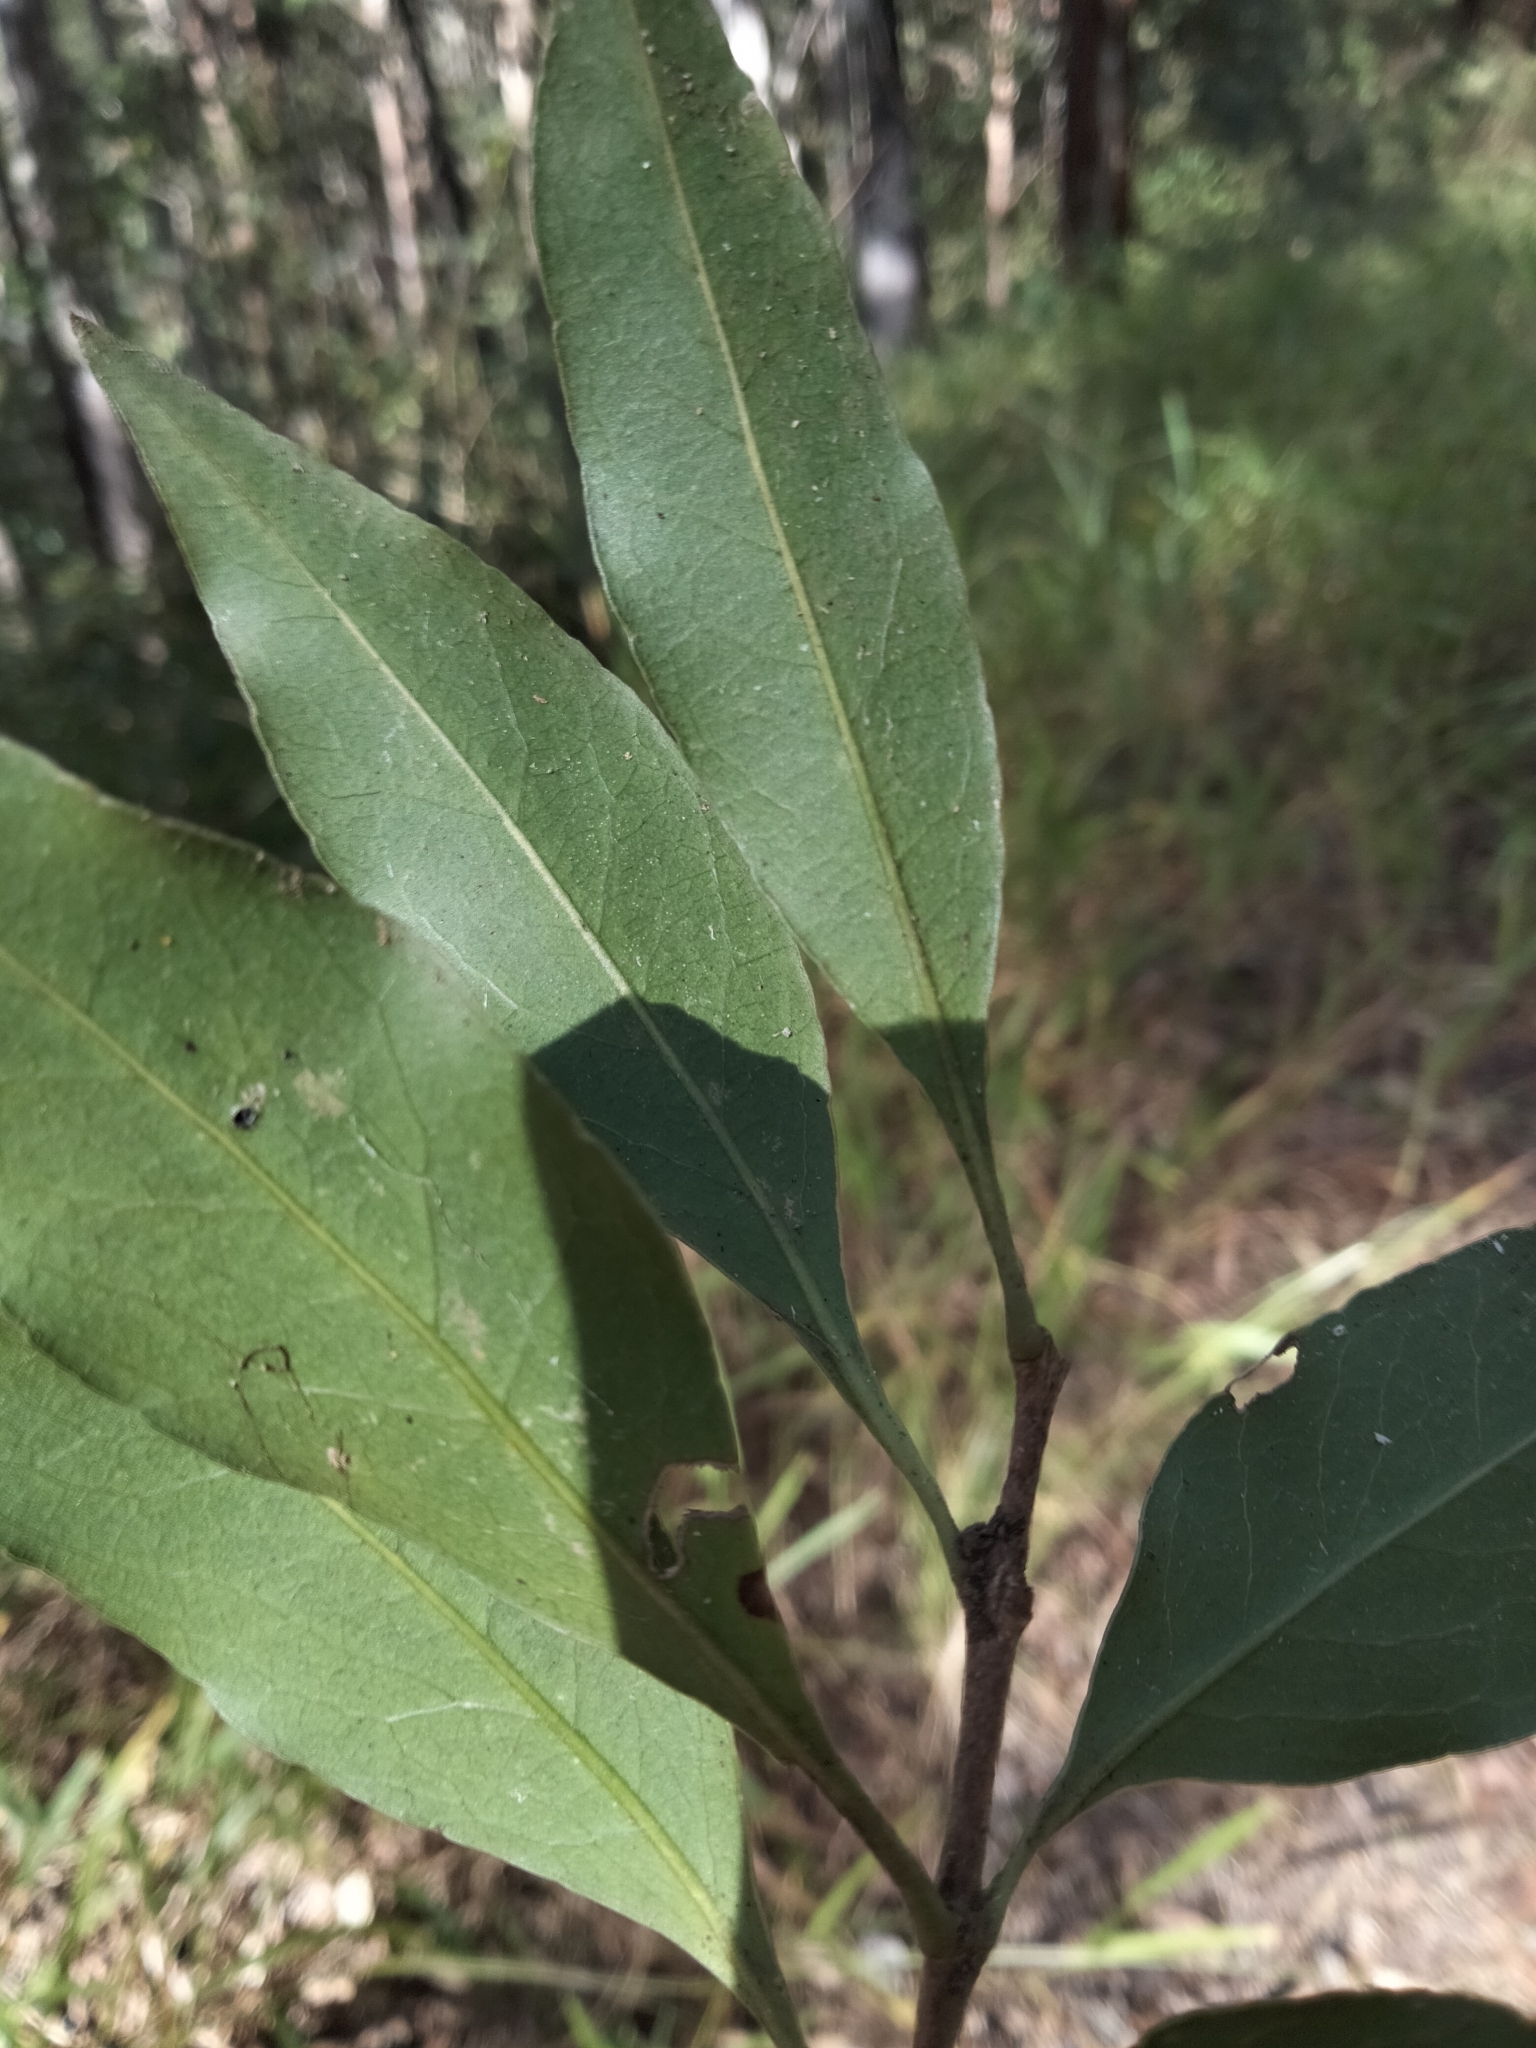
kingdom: Plantae
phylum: Tracheophyta
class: Magnoliopsida
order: Lamiales
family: Oleaceae
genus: Notelaea
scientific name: Notelaea longifolia
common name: Large mock olive
